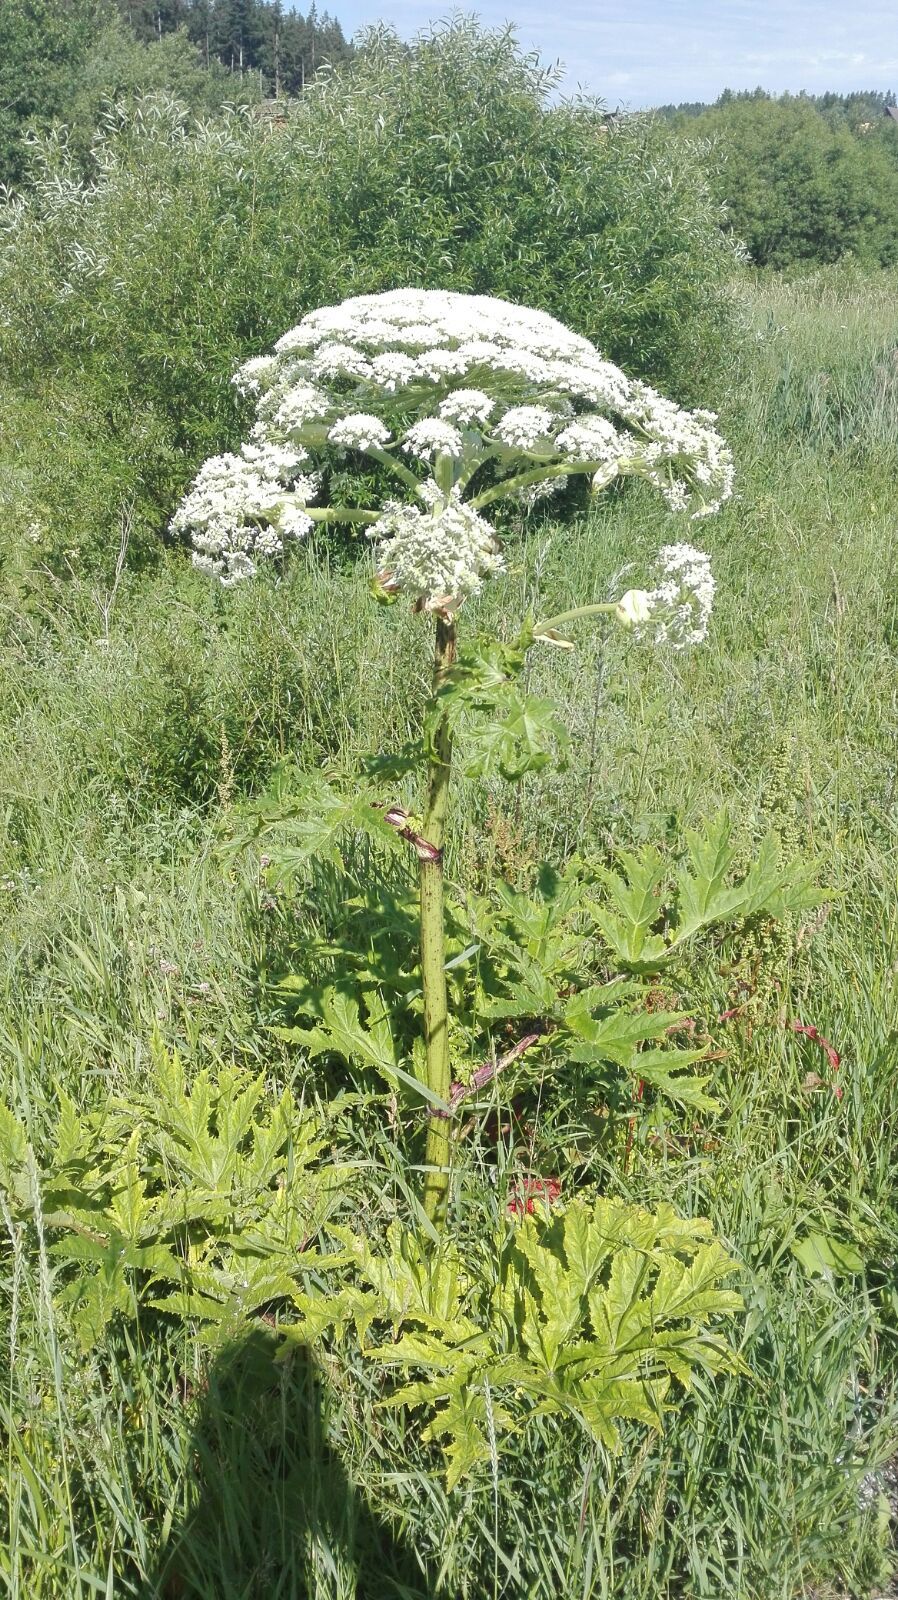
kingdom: Plantae
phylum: Tracheophyta
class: Magnoliopsida
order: Apiales
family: Apiaceae
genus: Heracleum
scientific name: Heracleum mantegazzianum
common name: Giant hogweed
